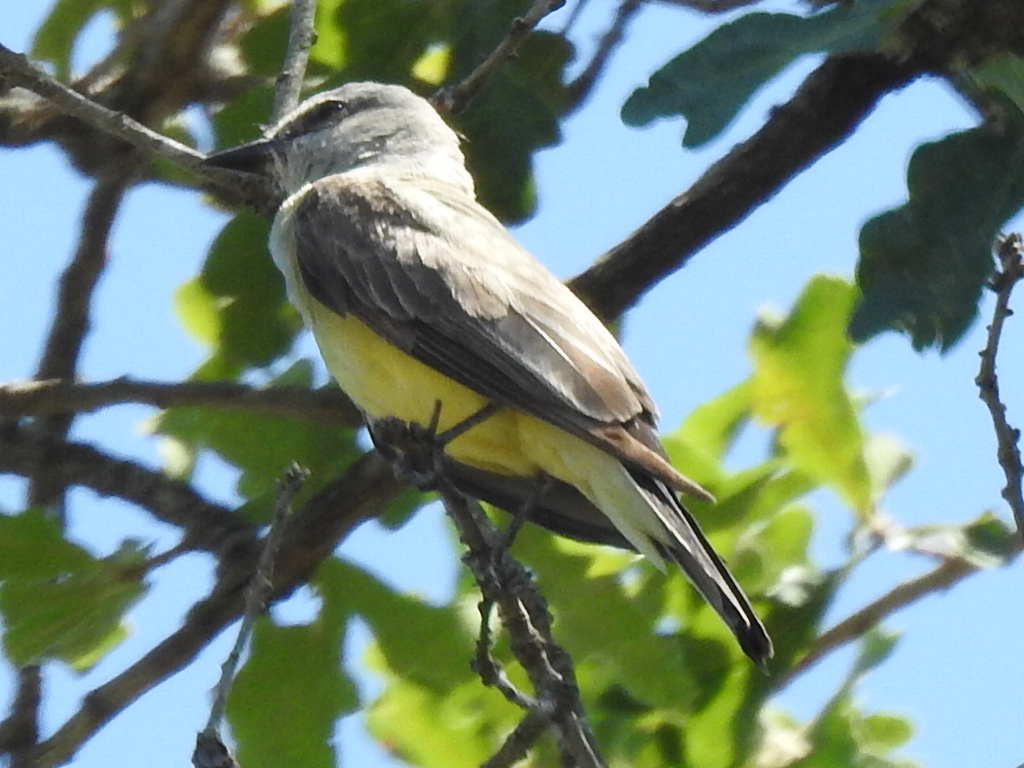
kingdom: Animalia
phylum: Chordata
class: Aves
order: Passeriformes
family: Tyrannidae
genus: Tyrannus
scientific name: Tyrannus verticalis
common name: Western kingbird
